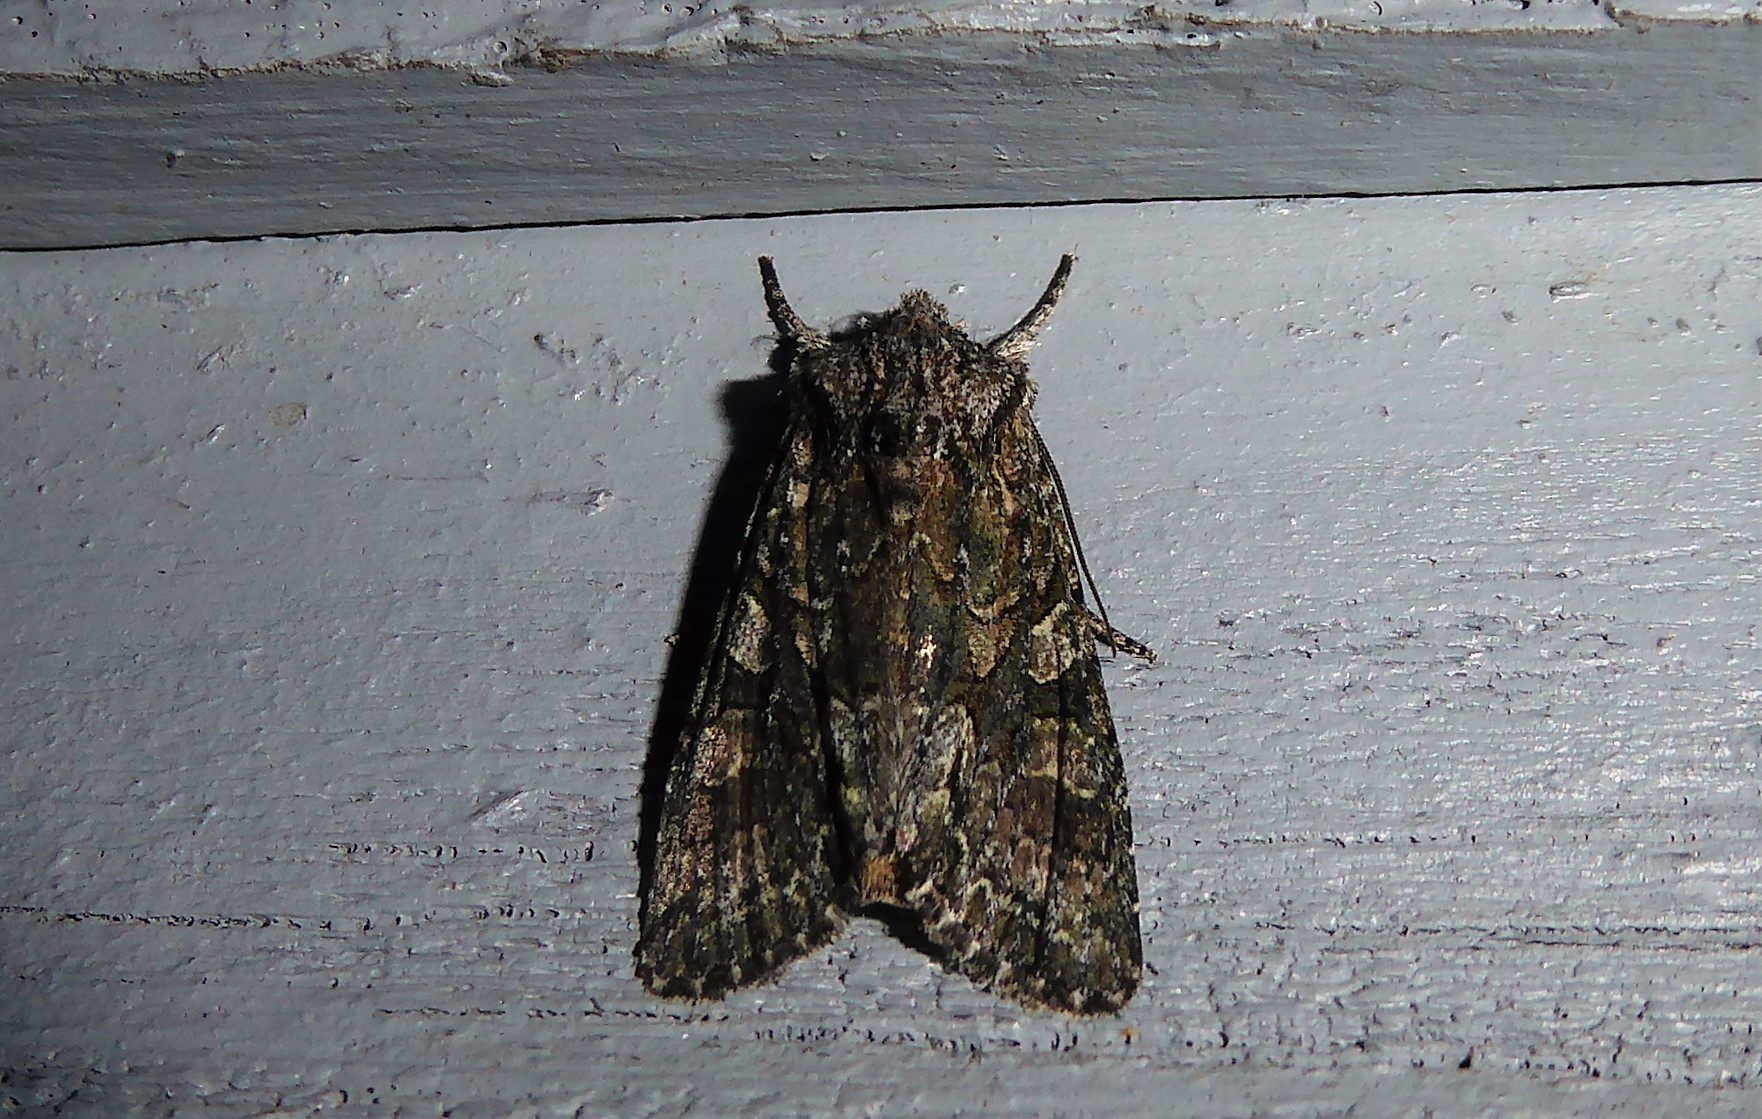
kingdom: Animalia
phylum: Arthropoda
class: Insecta
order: Lepidoptera
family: Noctuidae
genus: Ichneutica
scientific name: Ichneutica mutans
